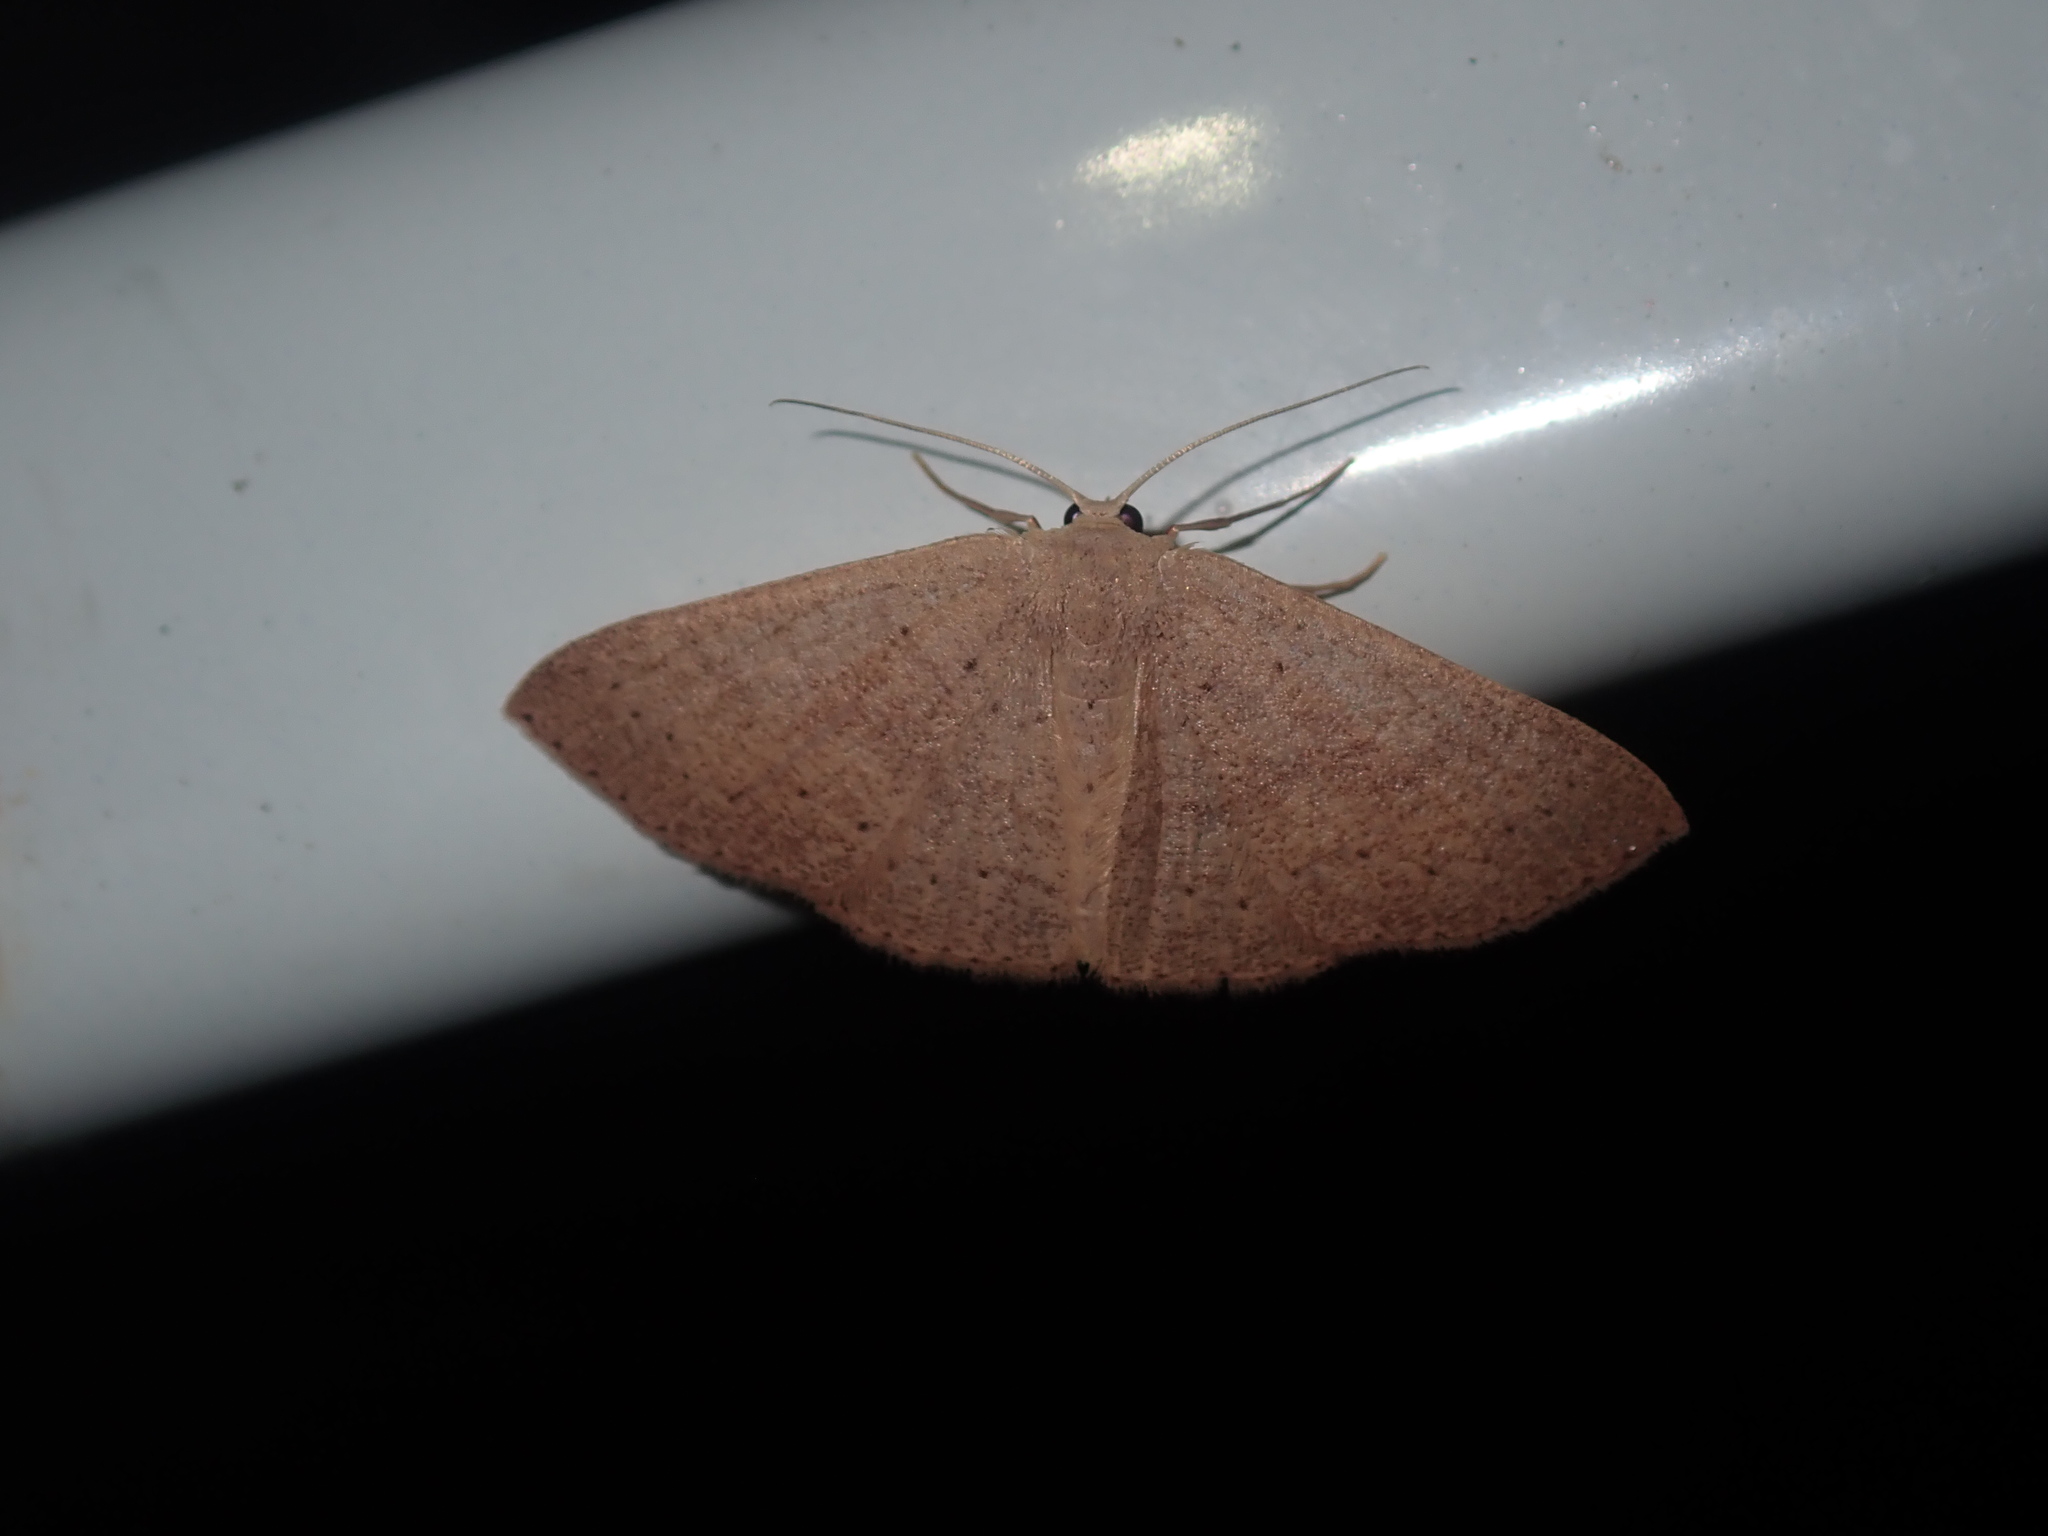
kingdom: Animalia
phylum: Arthropoda
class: Insecta
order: Lepidoptera
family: Geometridae
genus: Cyclophora
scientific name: Cyclophora obstataria
